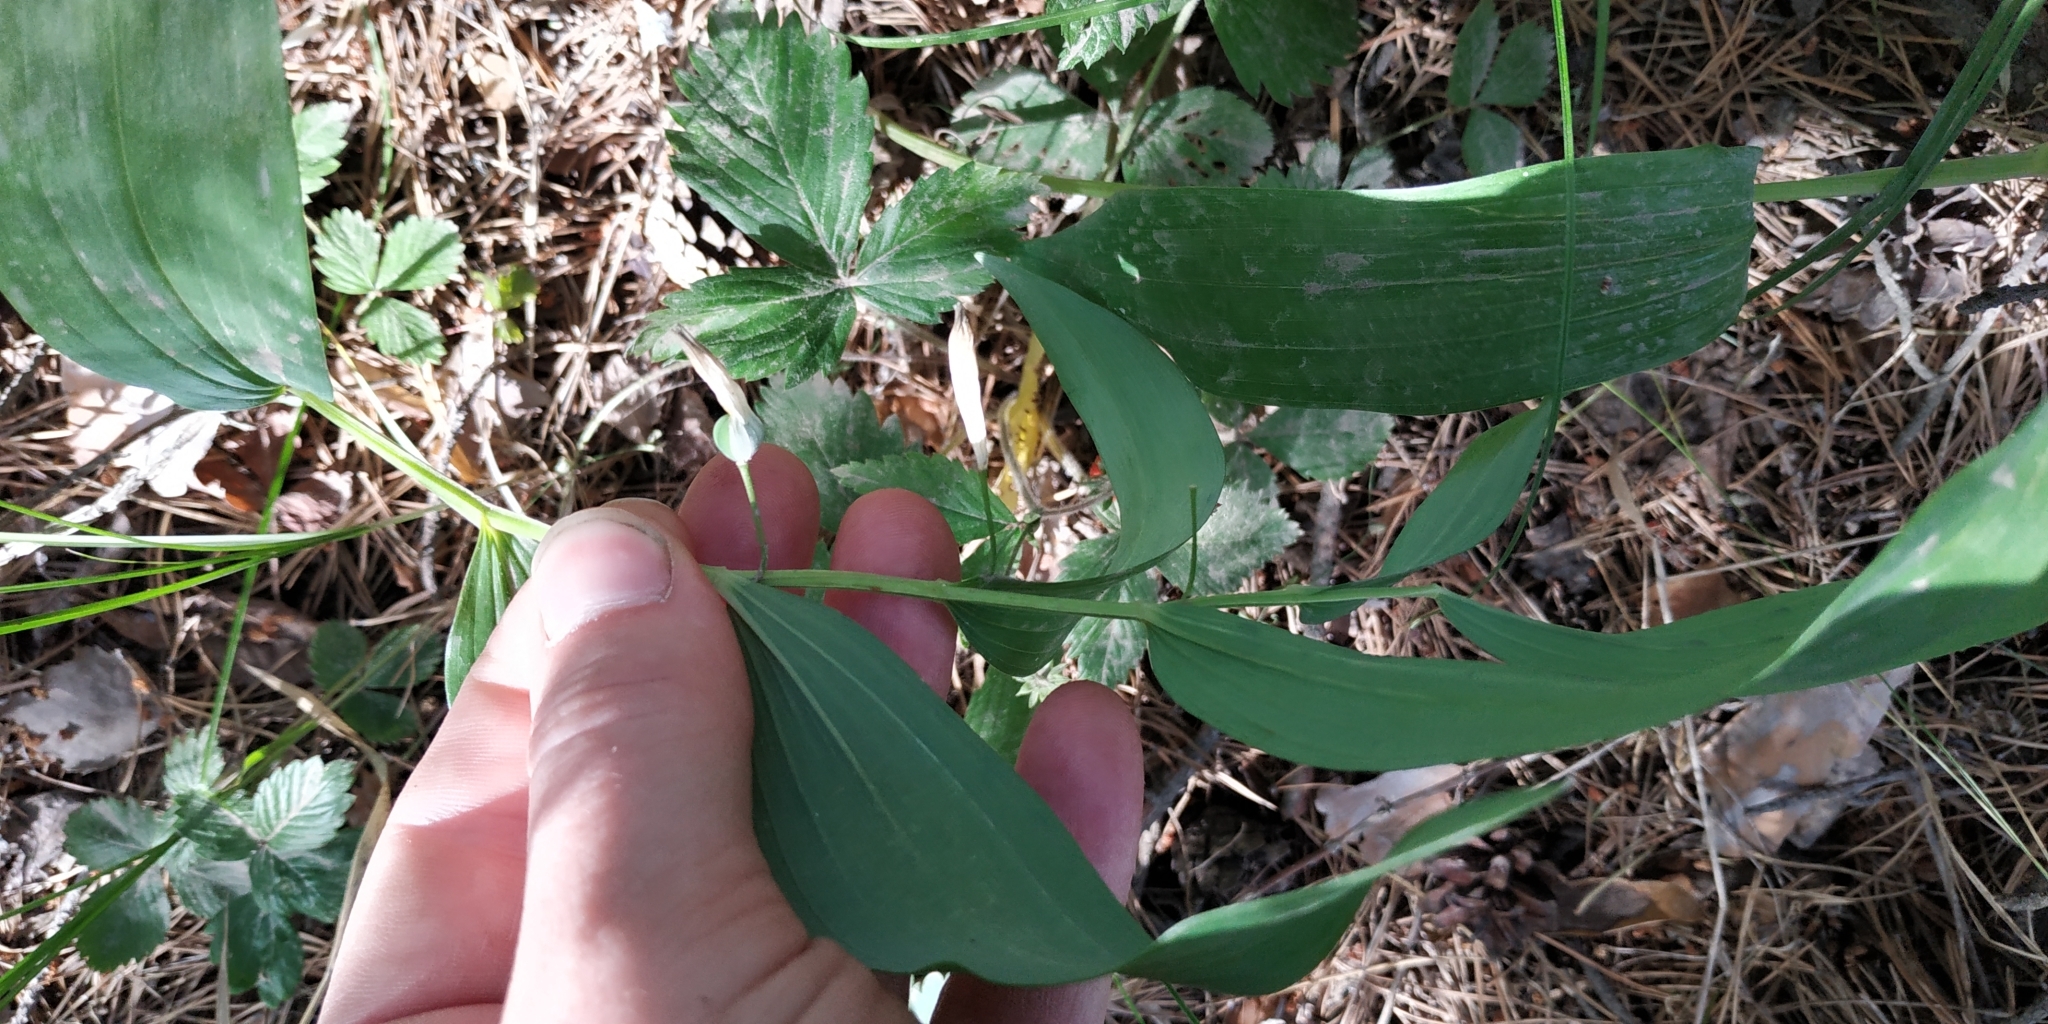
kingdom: Plantae
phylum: Tracheophyta
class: Liliopsida
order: Asparagales
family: Asparagaceae
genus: Polygonatum
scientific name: Polygonatum odoratum
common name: Angular solomon's-seal
